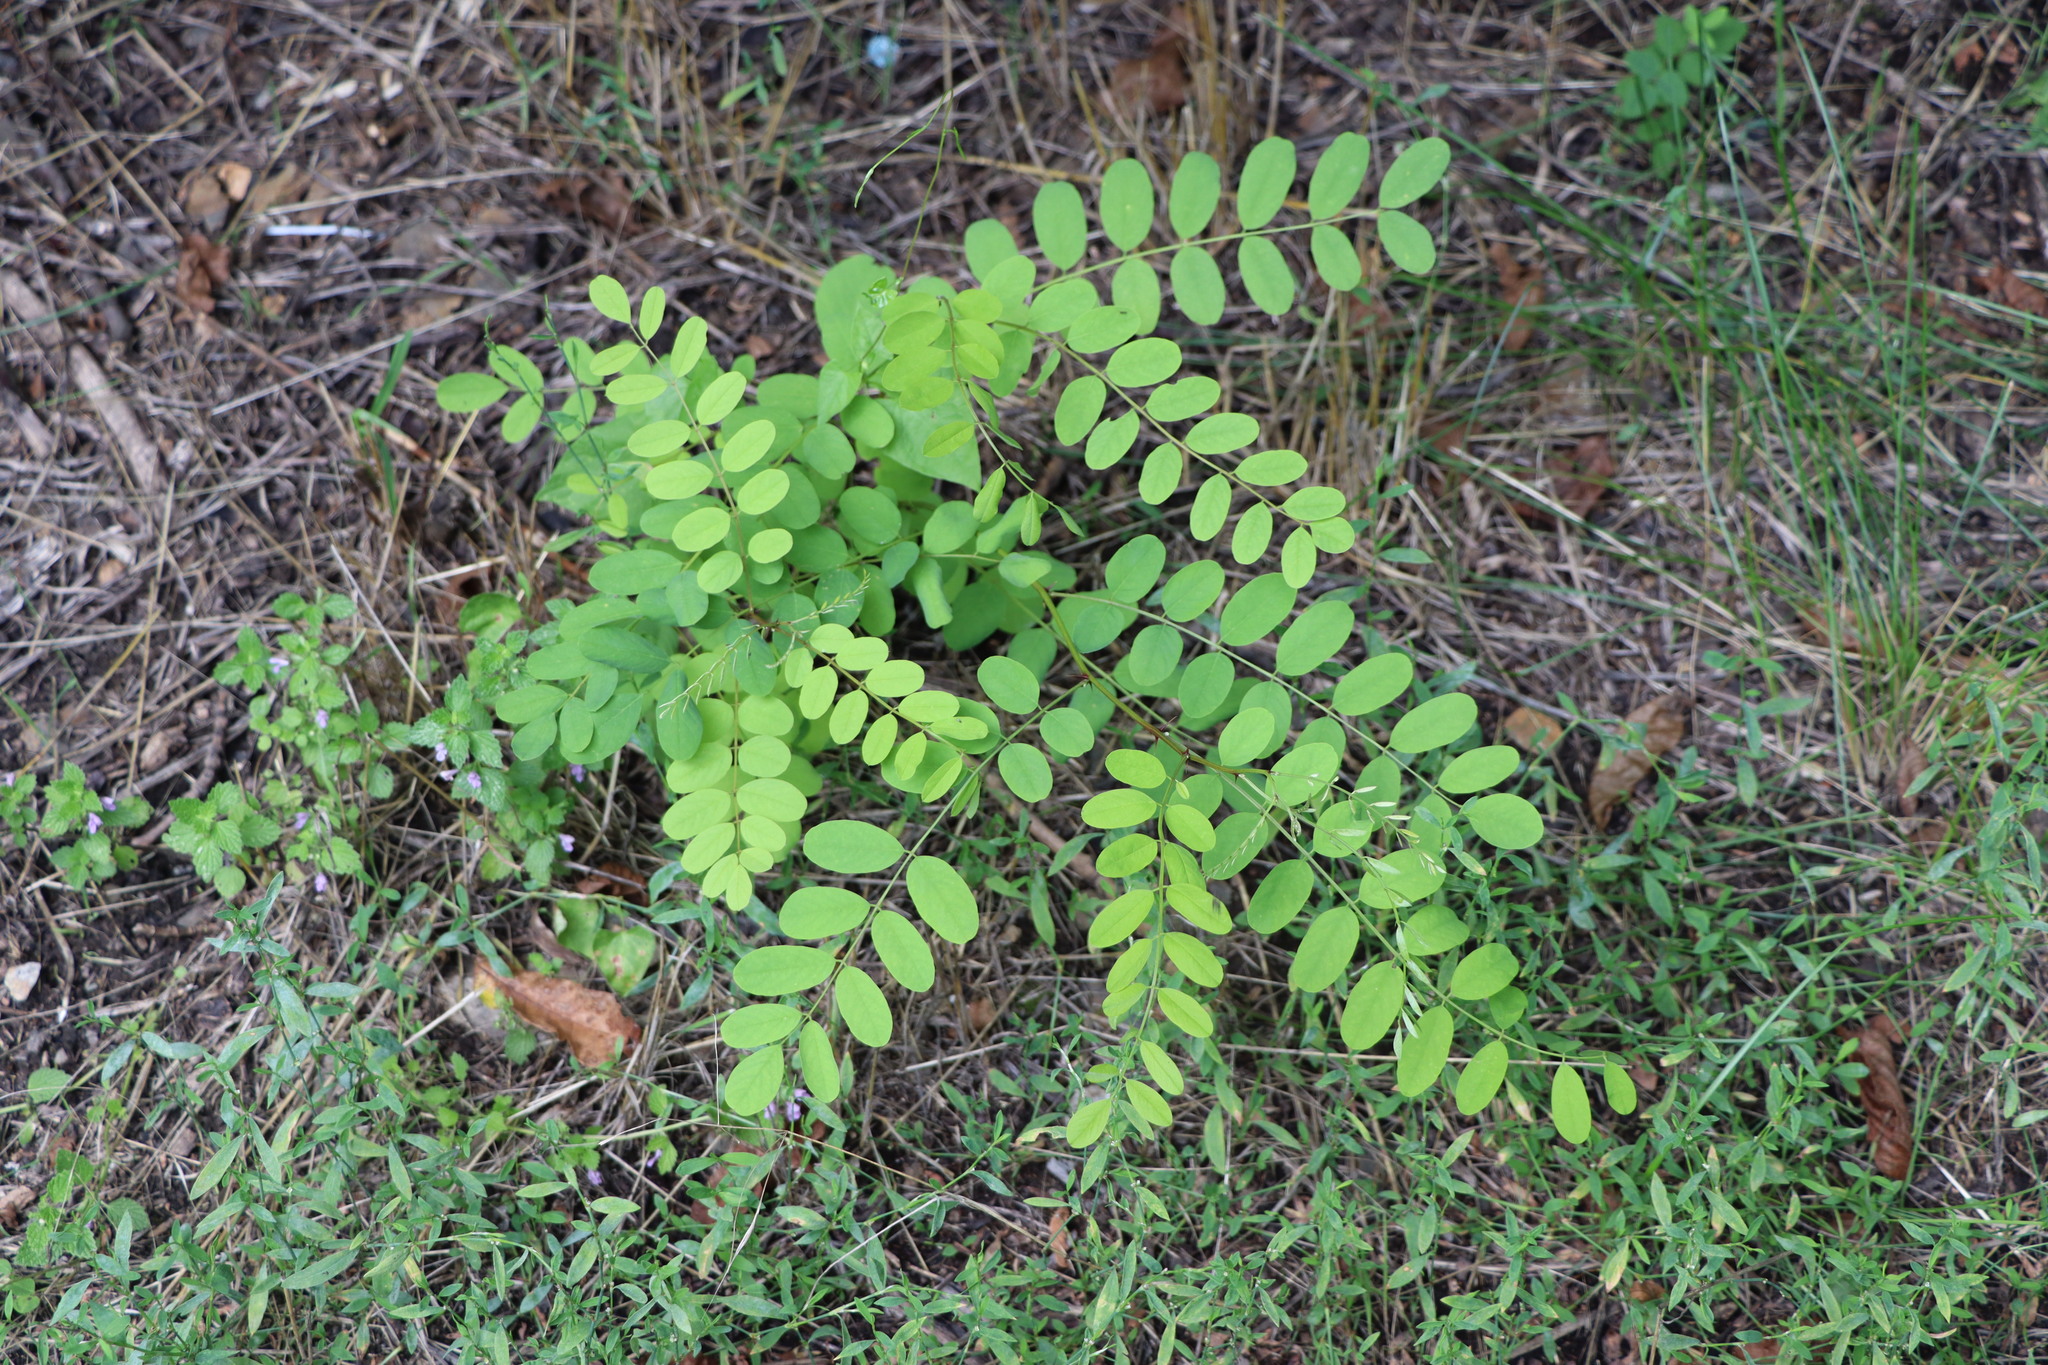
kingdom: Plantae
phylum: Tracheophyta
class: Magnoliopsida
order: Fabales
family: Fabaceae
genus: Robinia
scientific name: Robinia pseudoacacia
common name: Black locust
